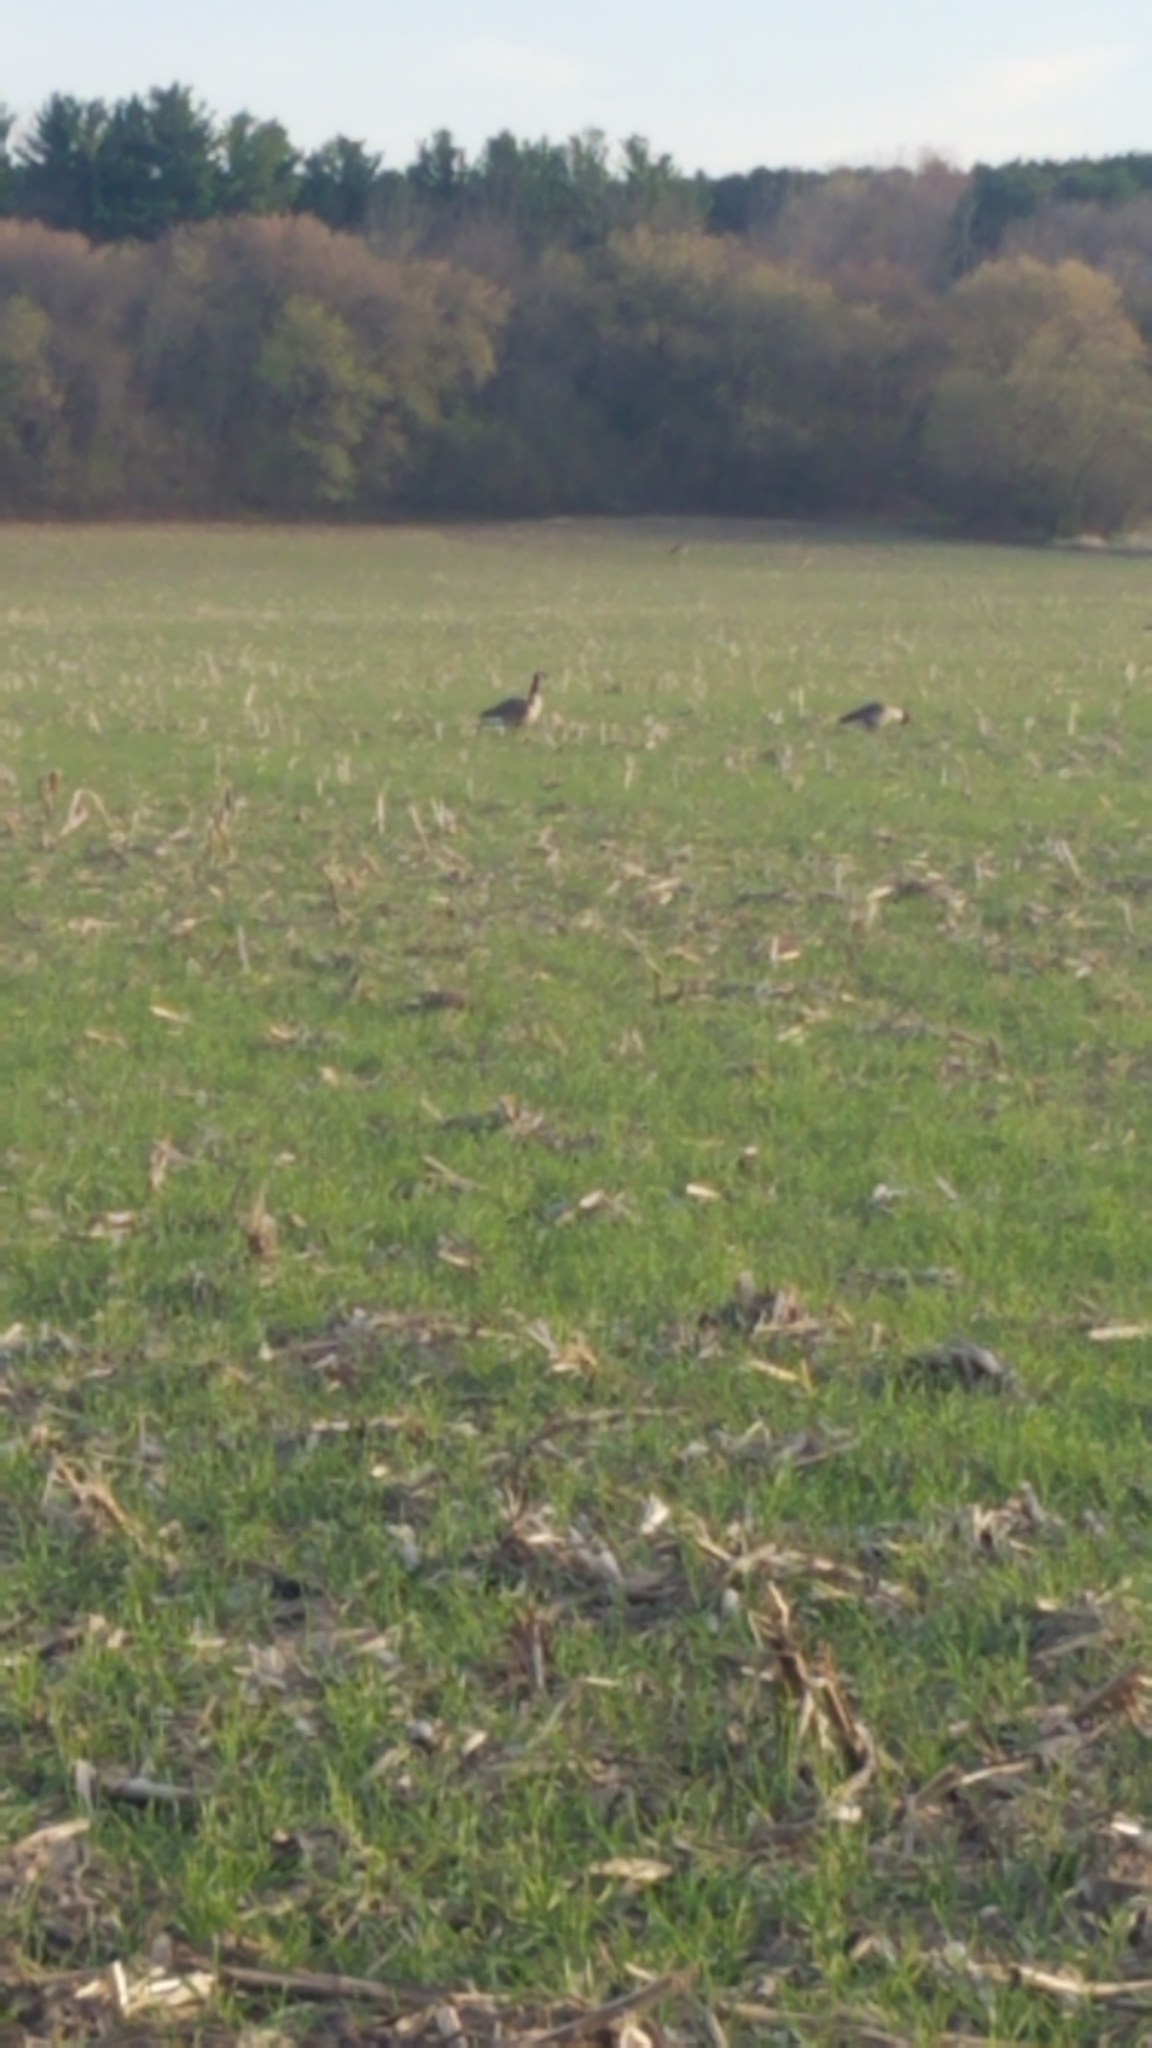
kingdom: Animalia
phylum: Chordata
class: Aves
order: Anseriformes
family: Anatidae
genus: Branta
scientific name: Branta canadensis
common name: Canada goose
